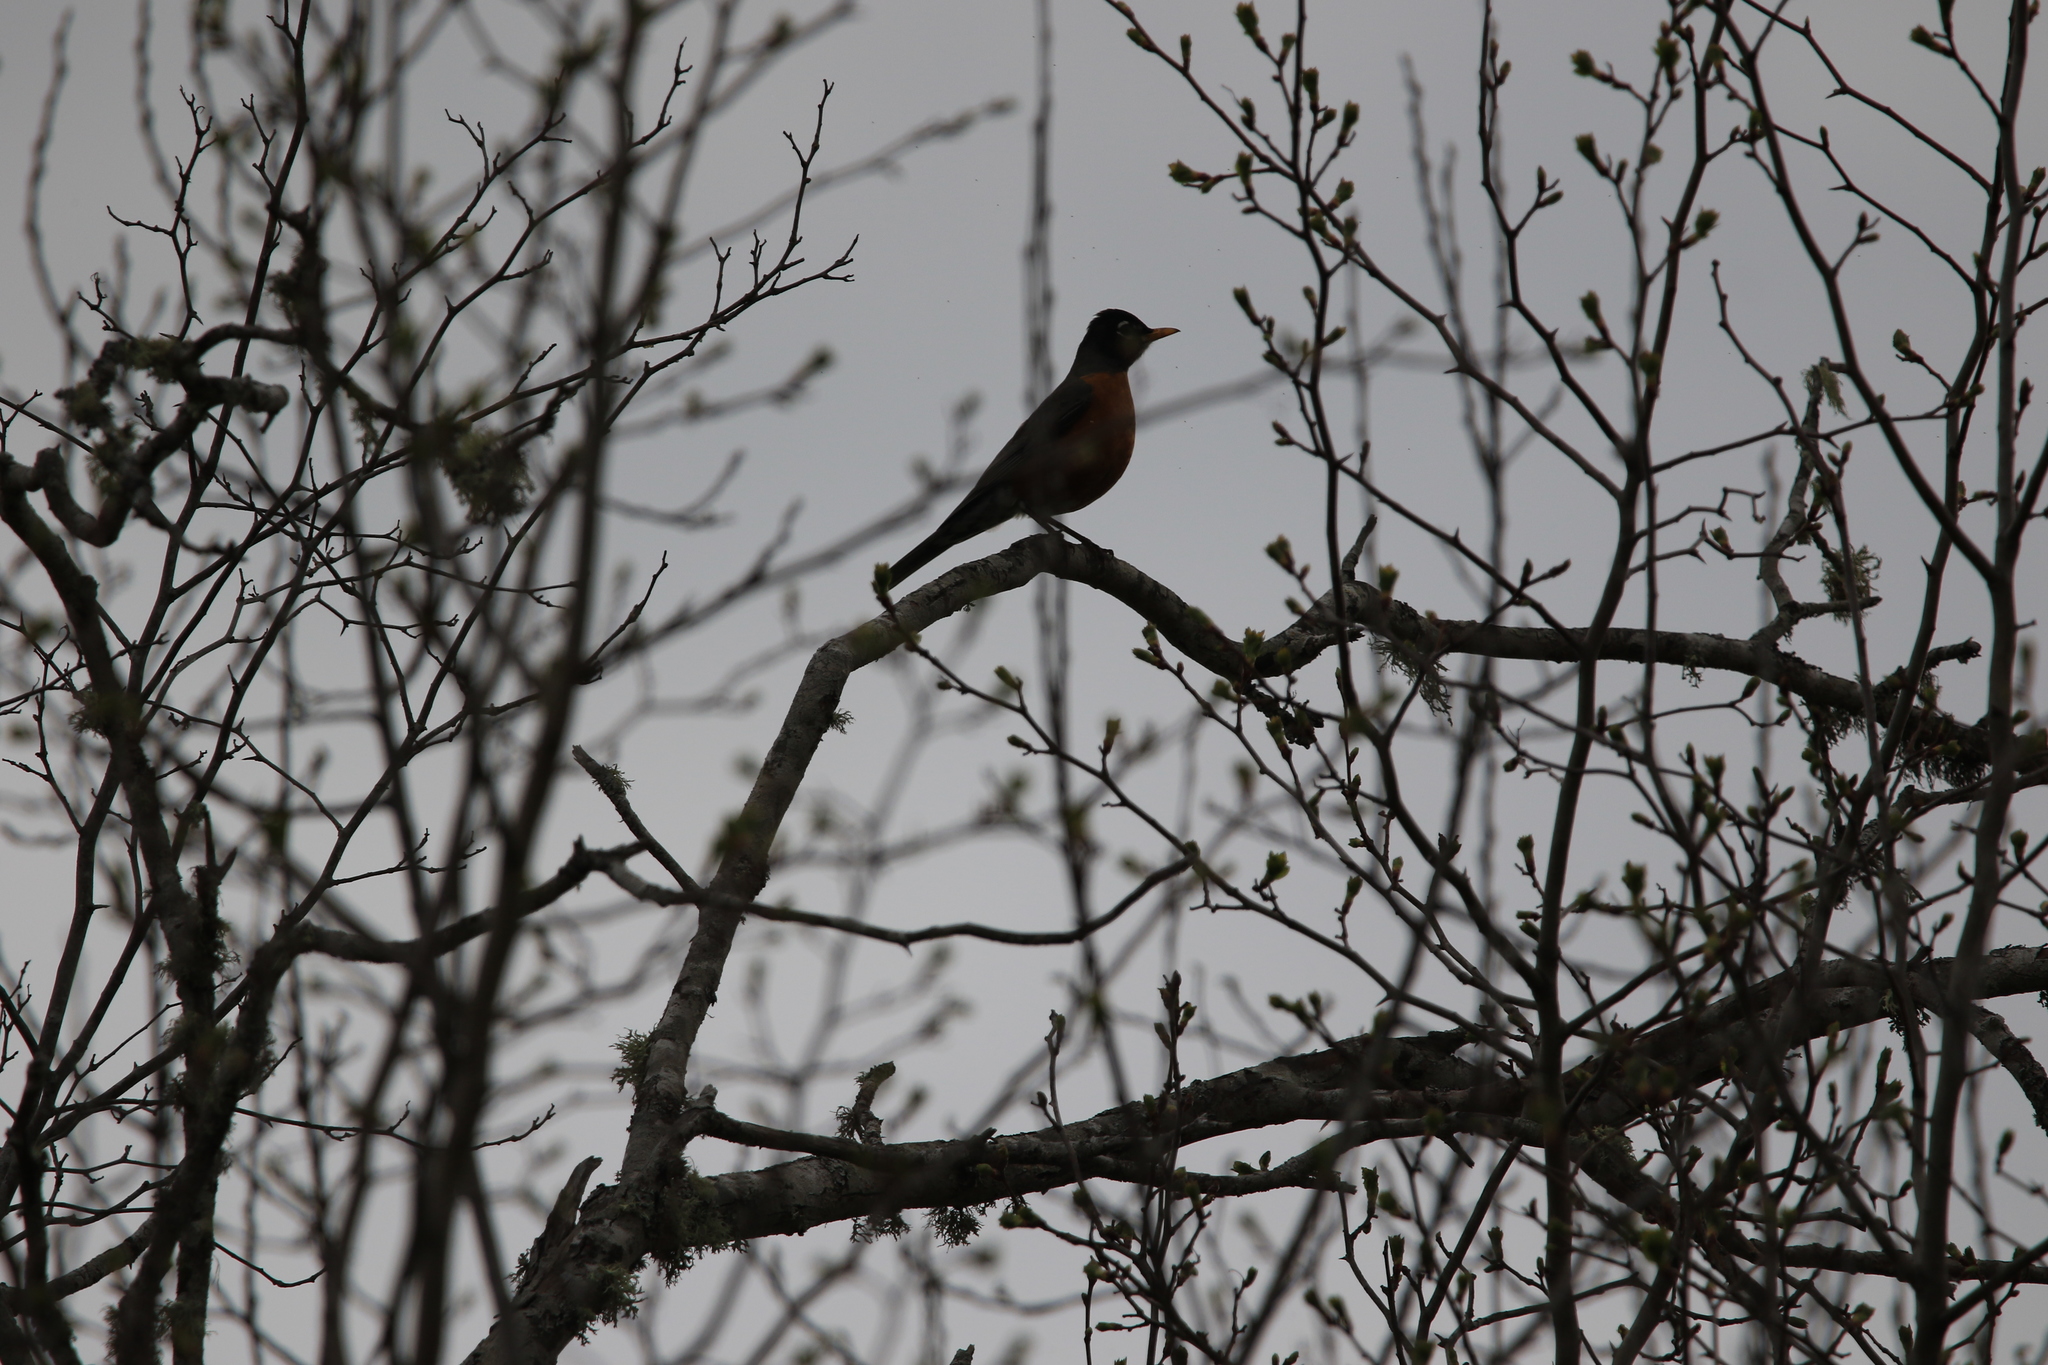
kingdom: Animalia
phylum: Chordata
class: Aves
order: Passeriformes
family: Turdidae
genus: Turdus
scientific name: Turdus migratorius
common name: American robin
